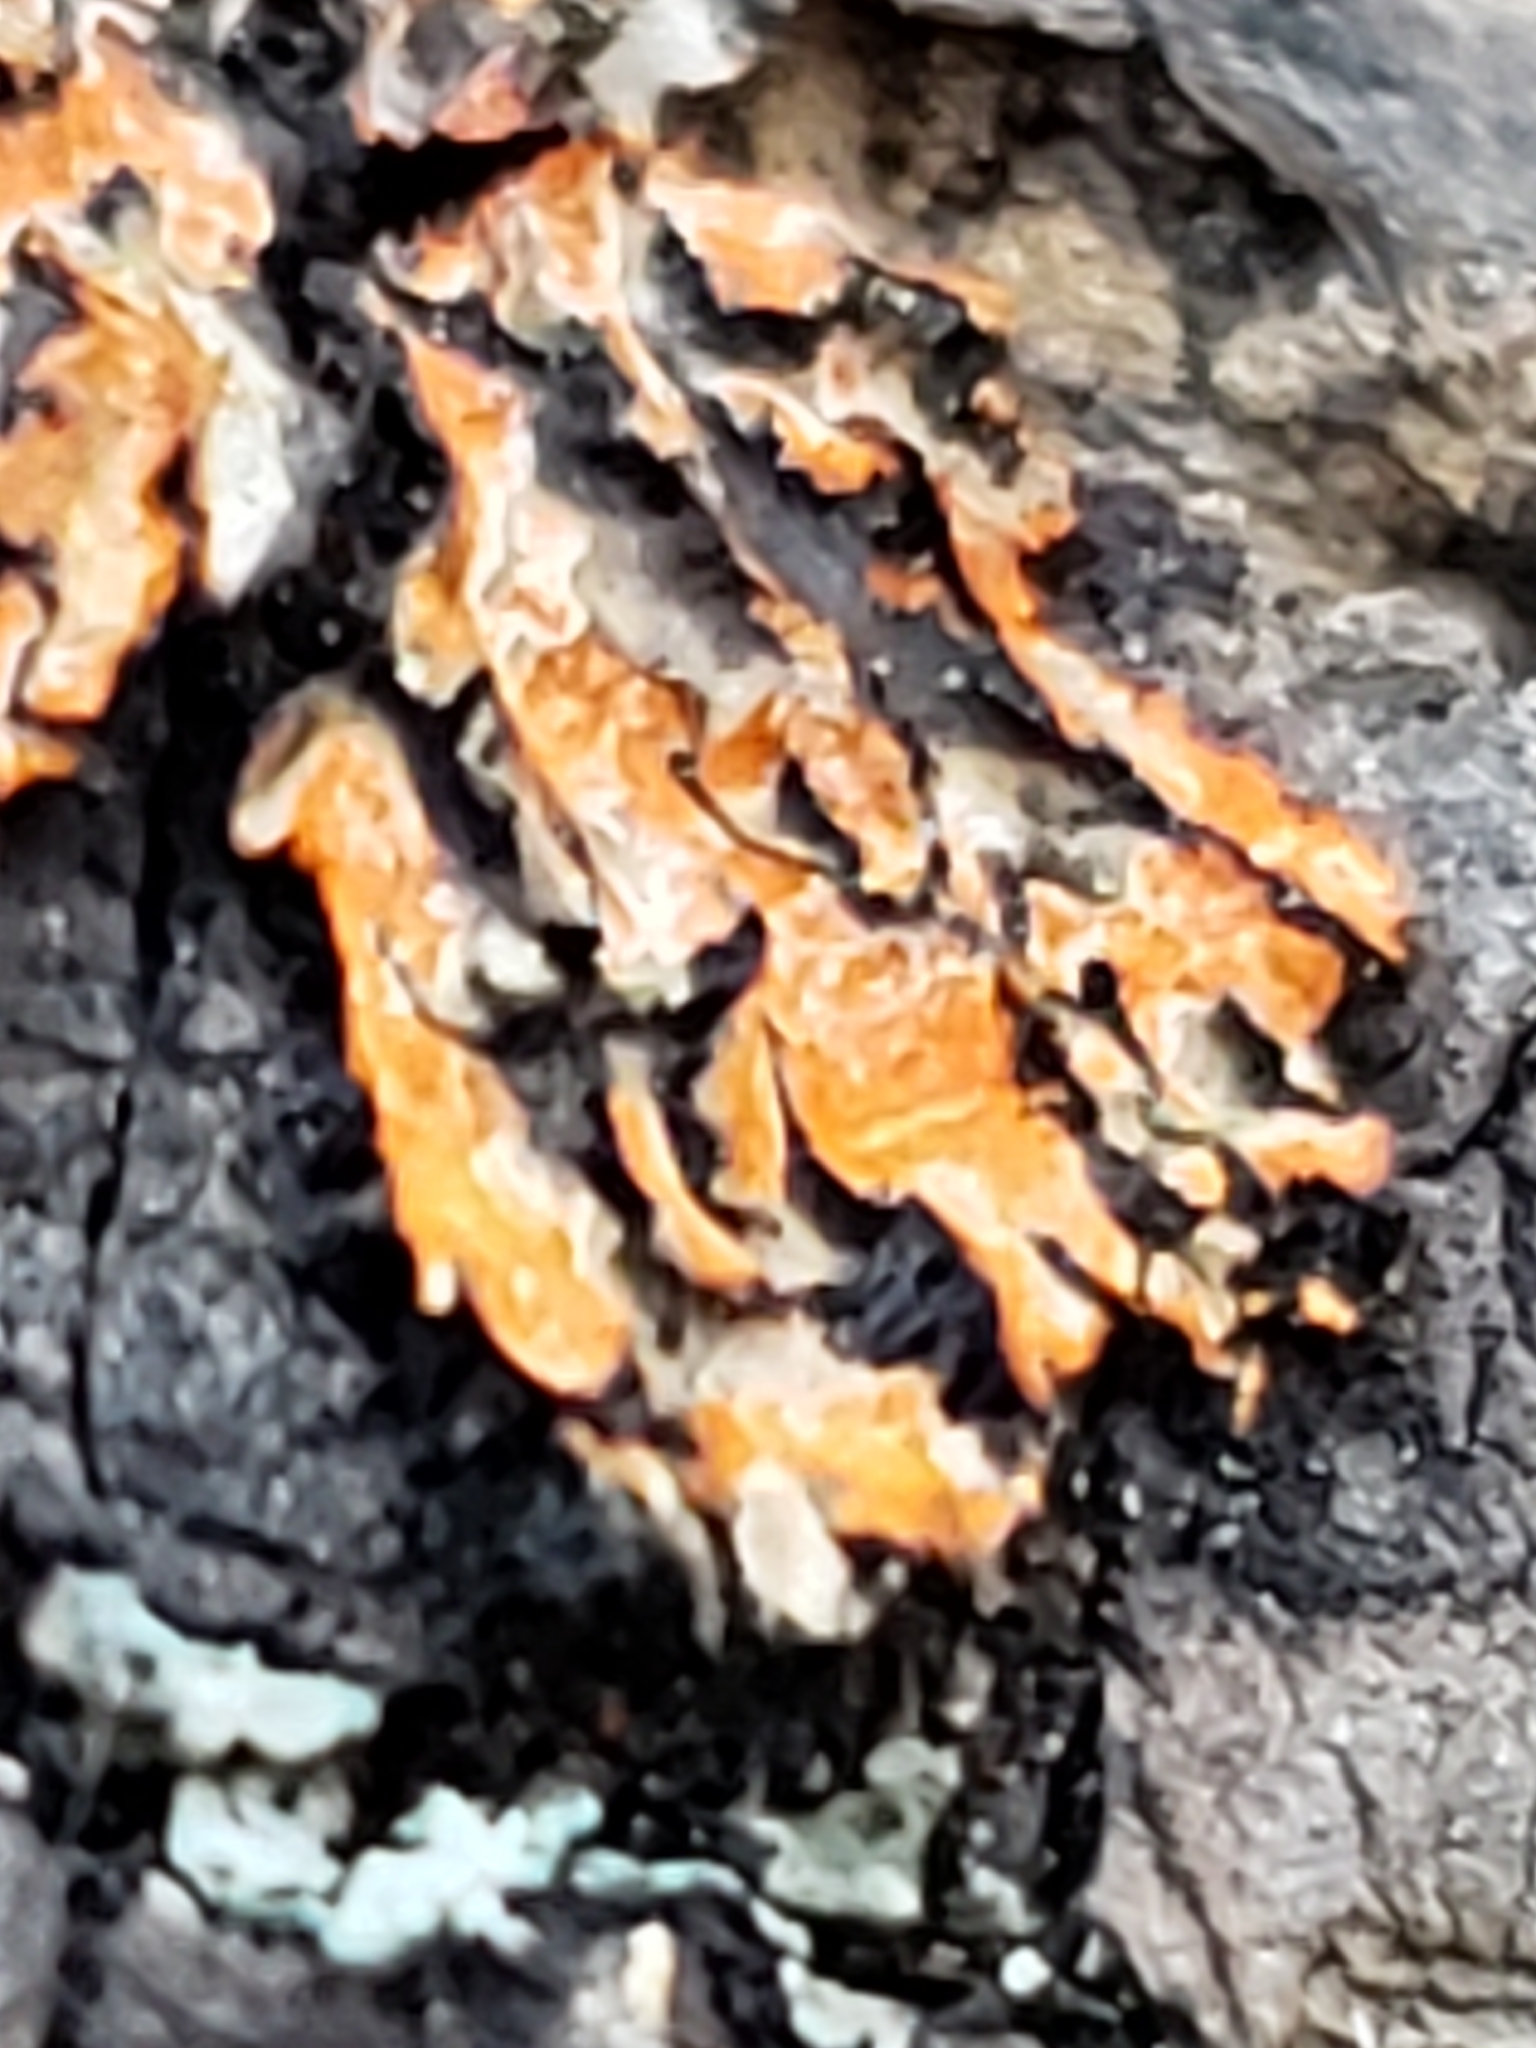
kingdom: Fungi
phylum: Ascomycota
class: Lecanoromycetes
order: Caliciales
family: Physciaceae
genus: Phaeophyscia
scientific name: Phaeophyscia rubropulchra
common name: Orange-cored shadow lichen
